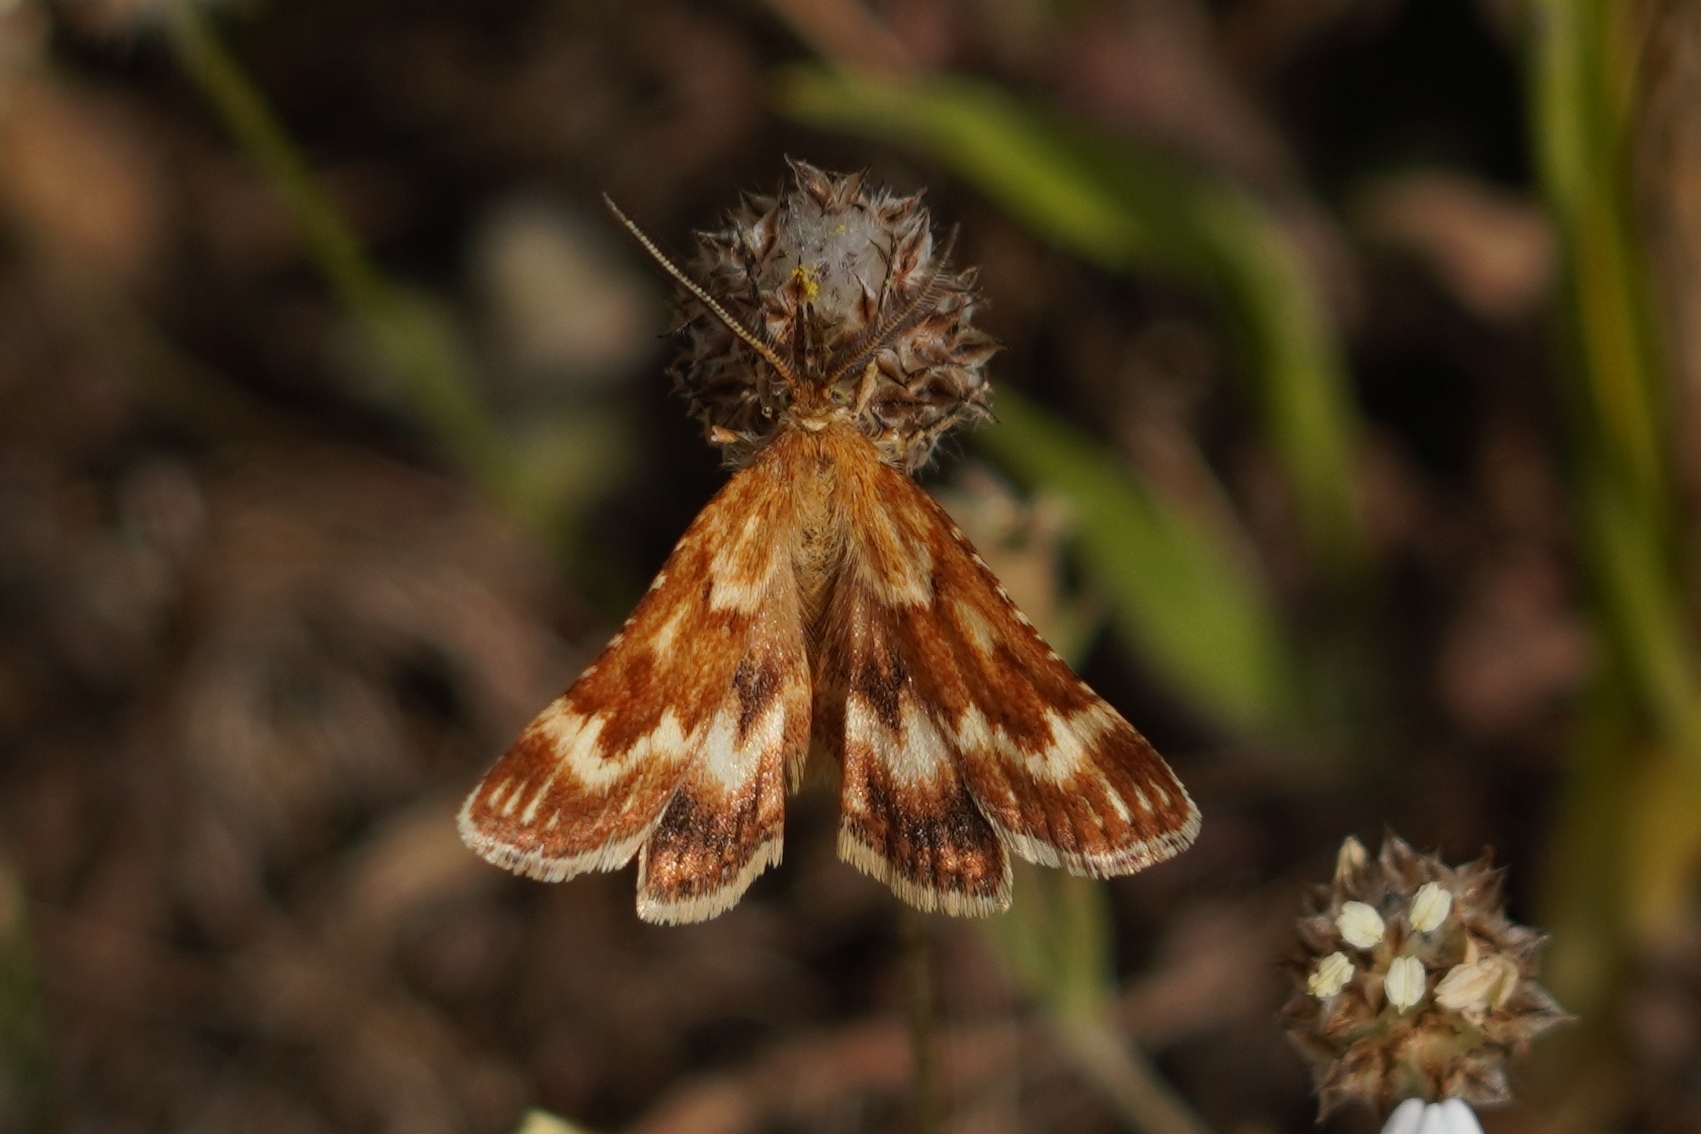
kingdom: Animalia
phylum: Arthropoda
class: Insecta
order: Lepidoptera
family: Pyralidae
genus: Synaphe
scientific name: Synaphe moldavica
